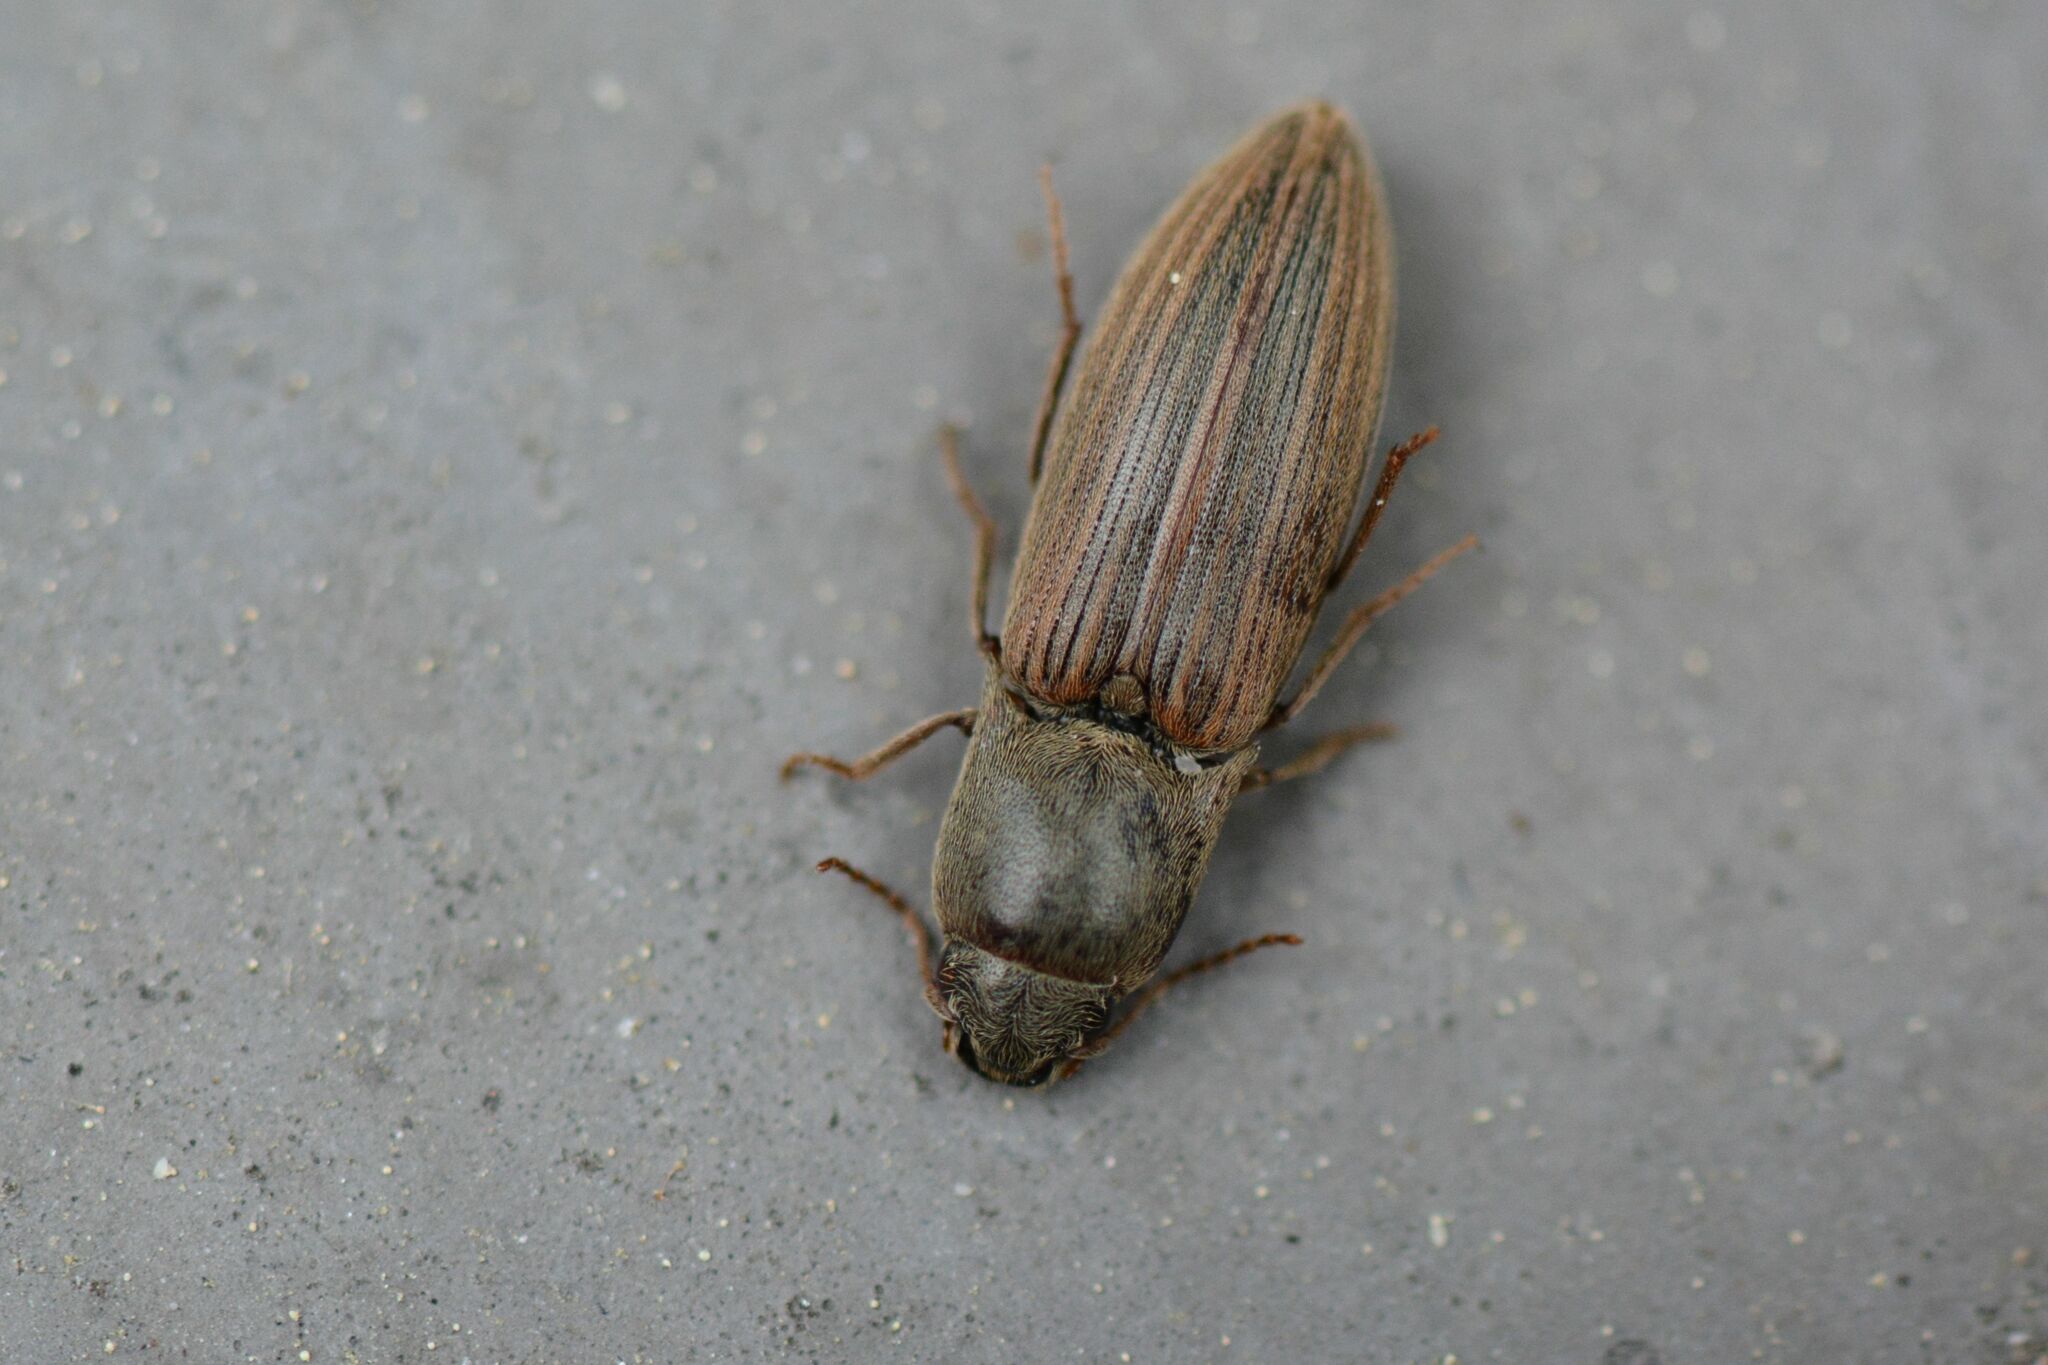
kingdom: Animalia
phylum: Arthropoda
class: Insecta
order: Coleoptera
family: Elateridae
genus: Agriotes
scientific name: Agriotes lineatus
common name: Lined click beetle
